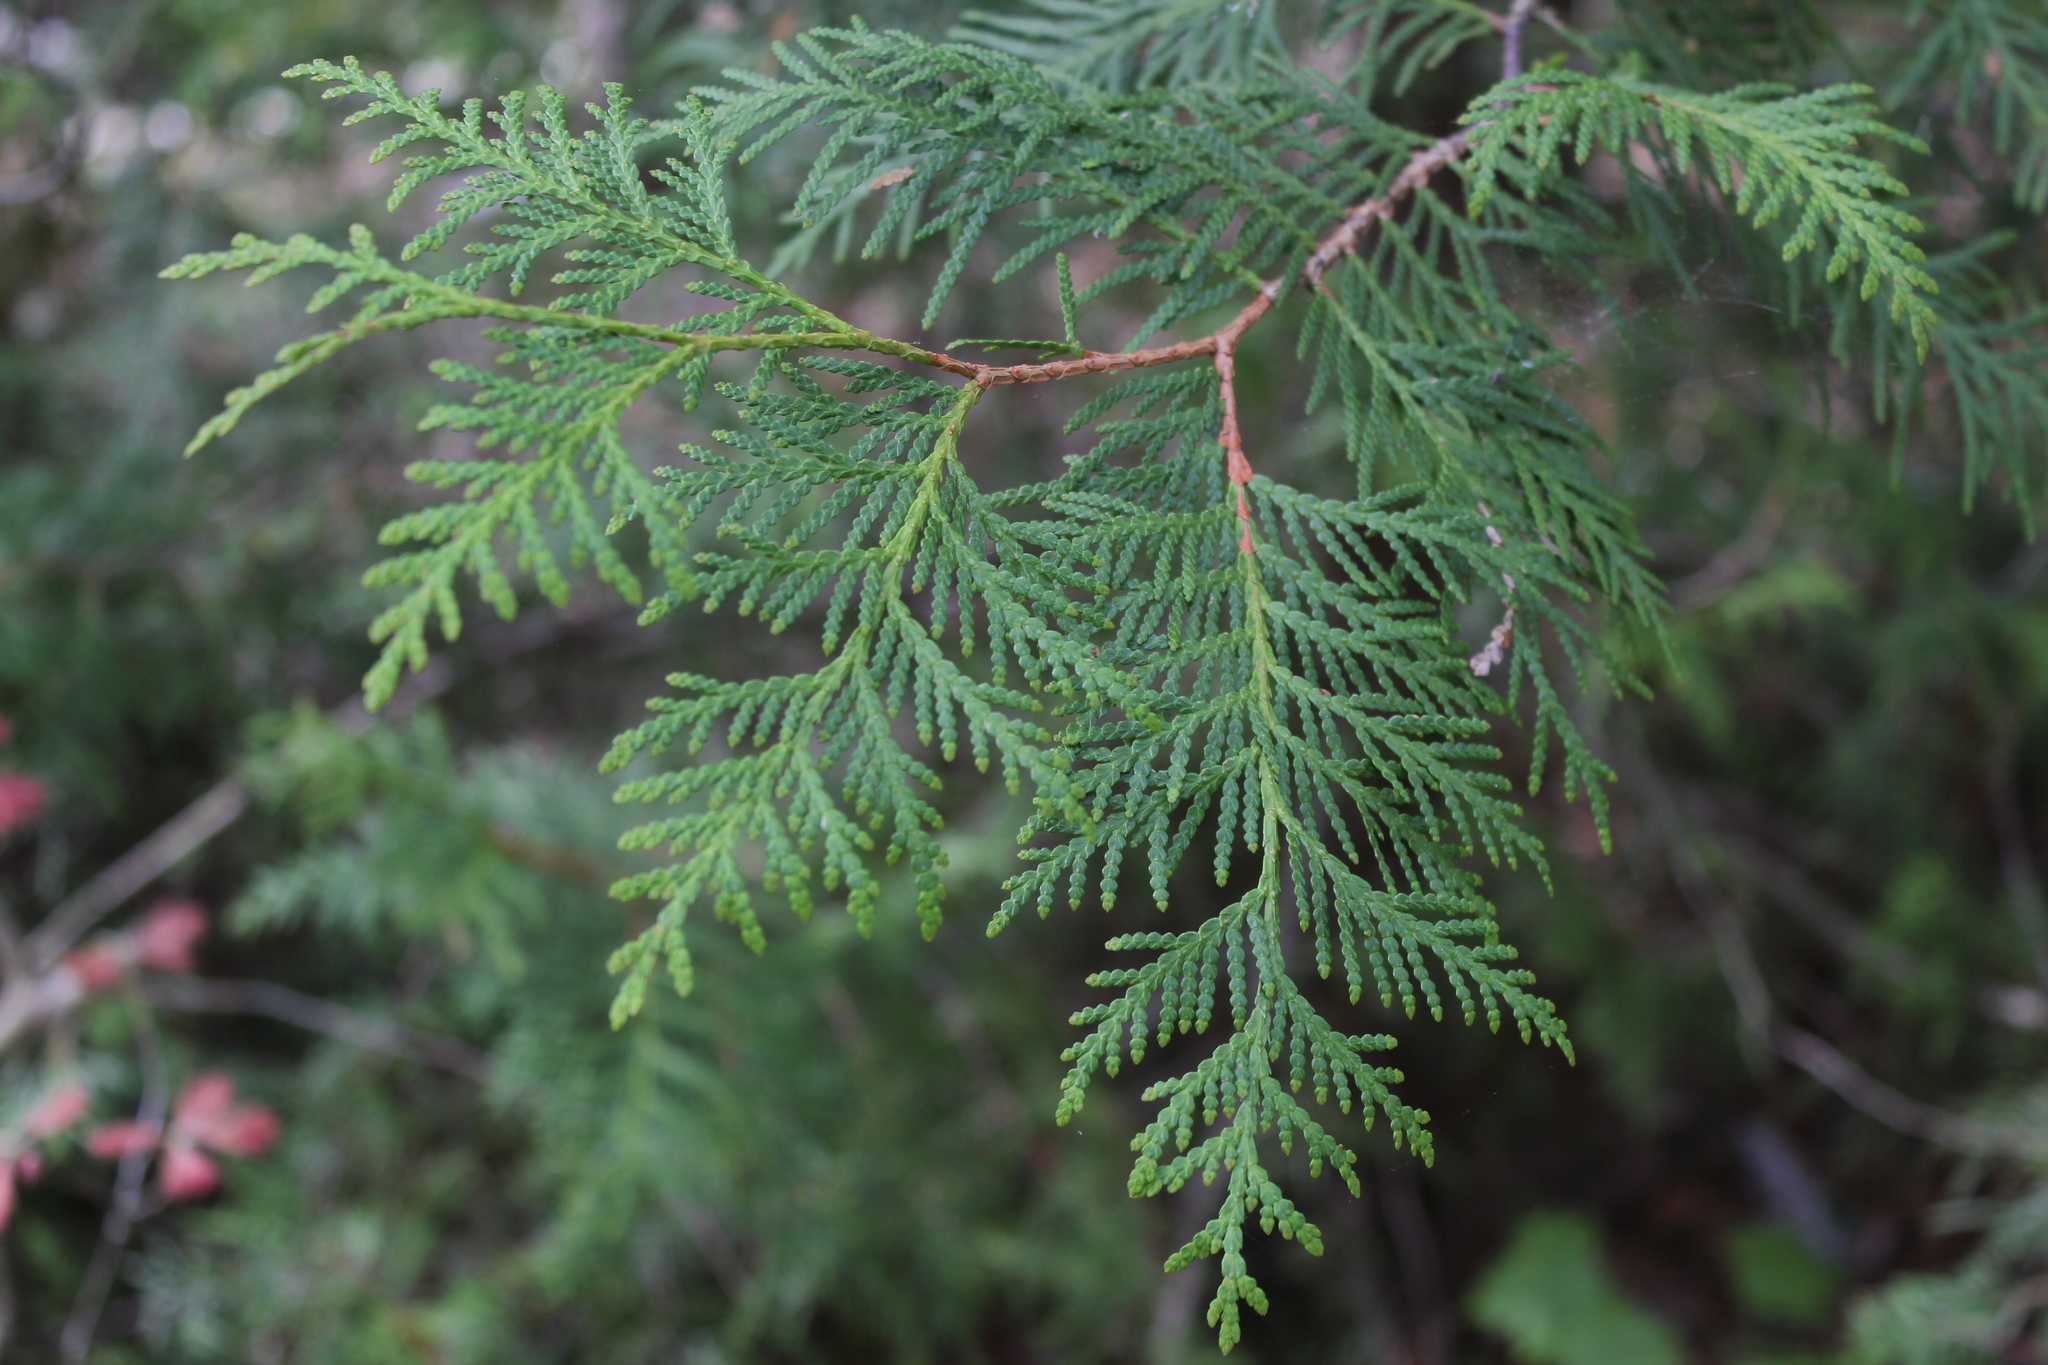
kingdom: Plantae
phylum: Tracheophyta
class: Pinopsida
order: Pinales
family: Cupressaceae
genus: Thuja
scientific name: Thuja occidentalis
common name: Northern white-cedar
